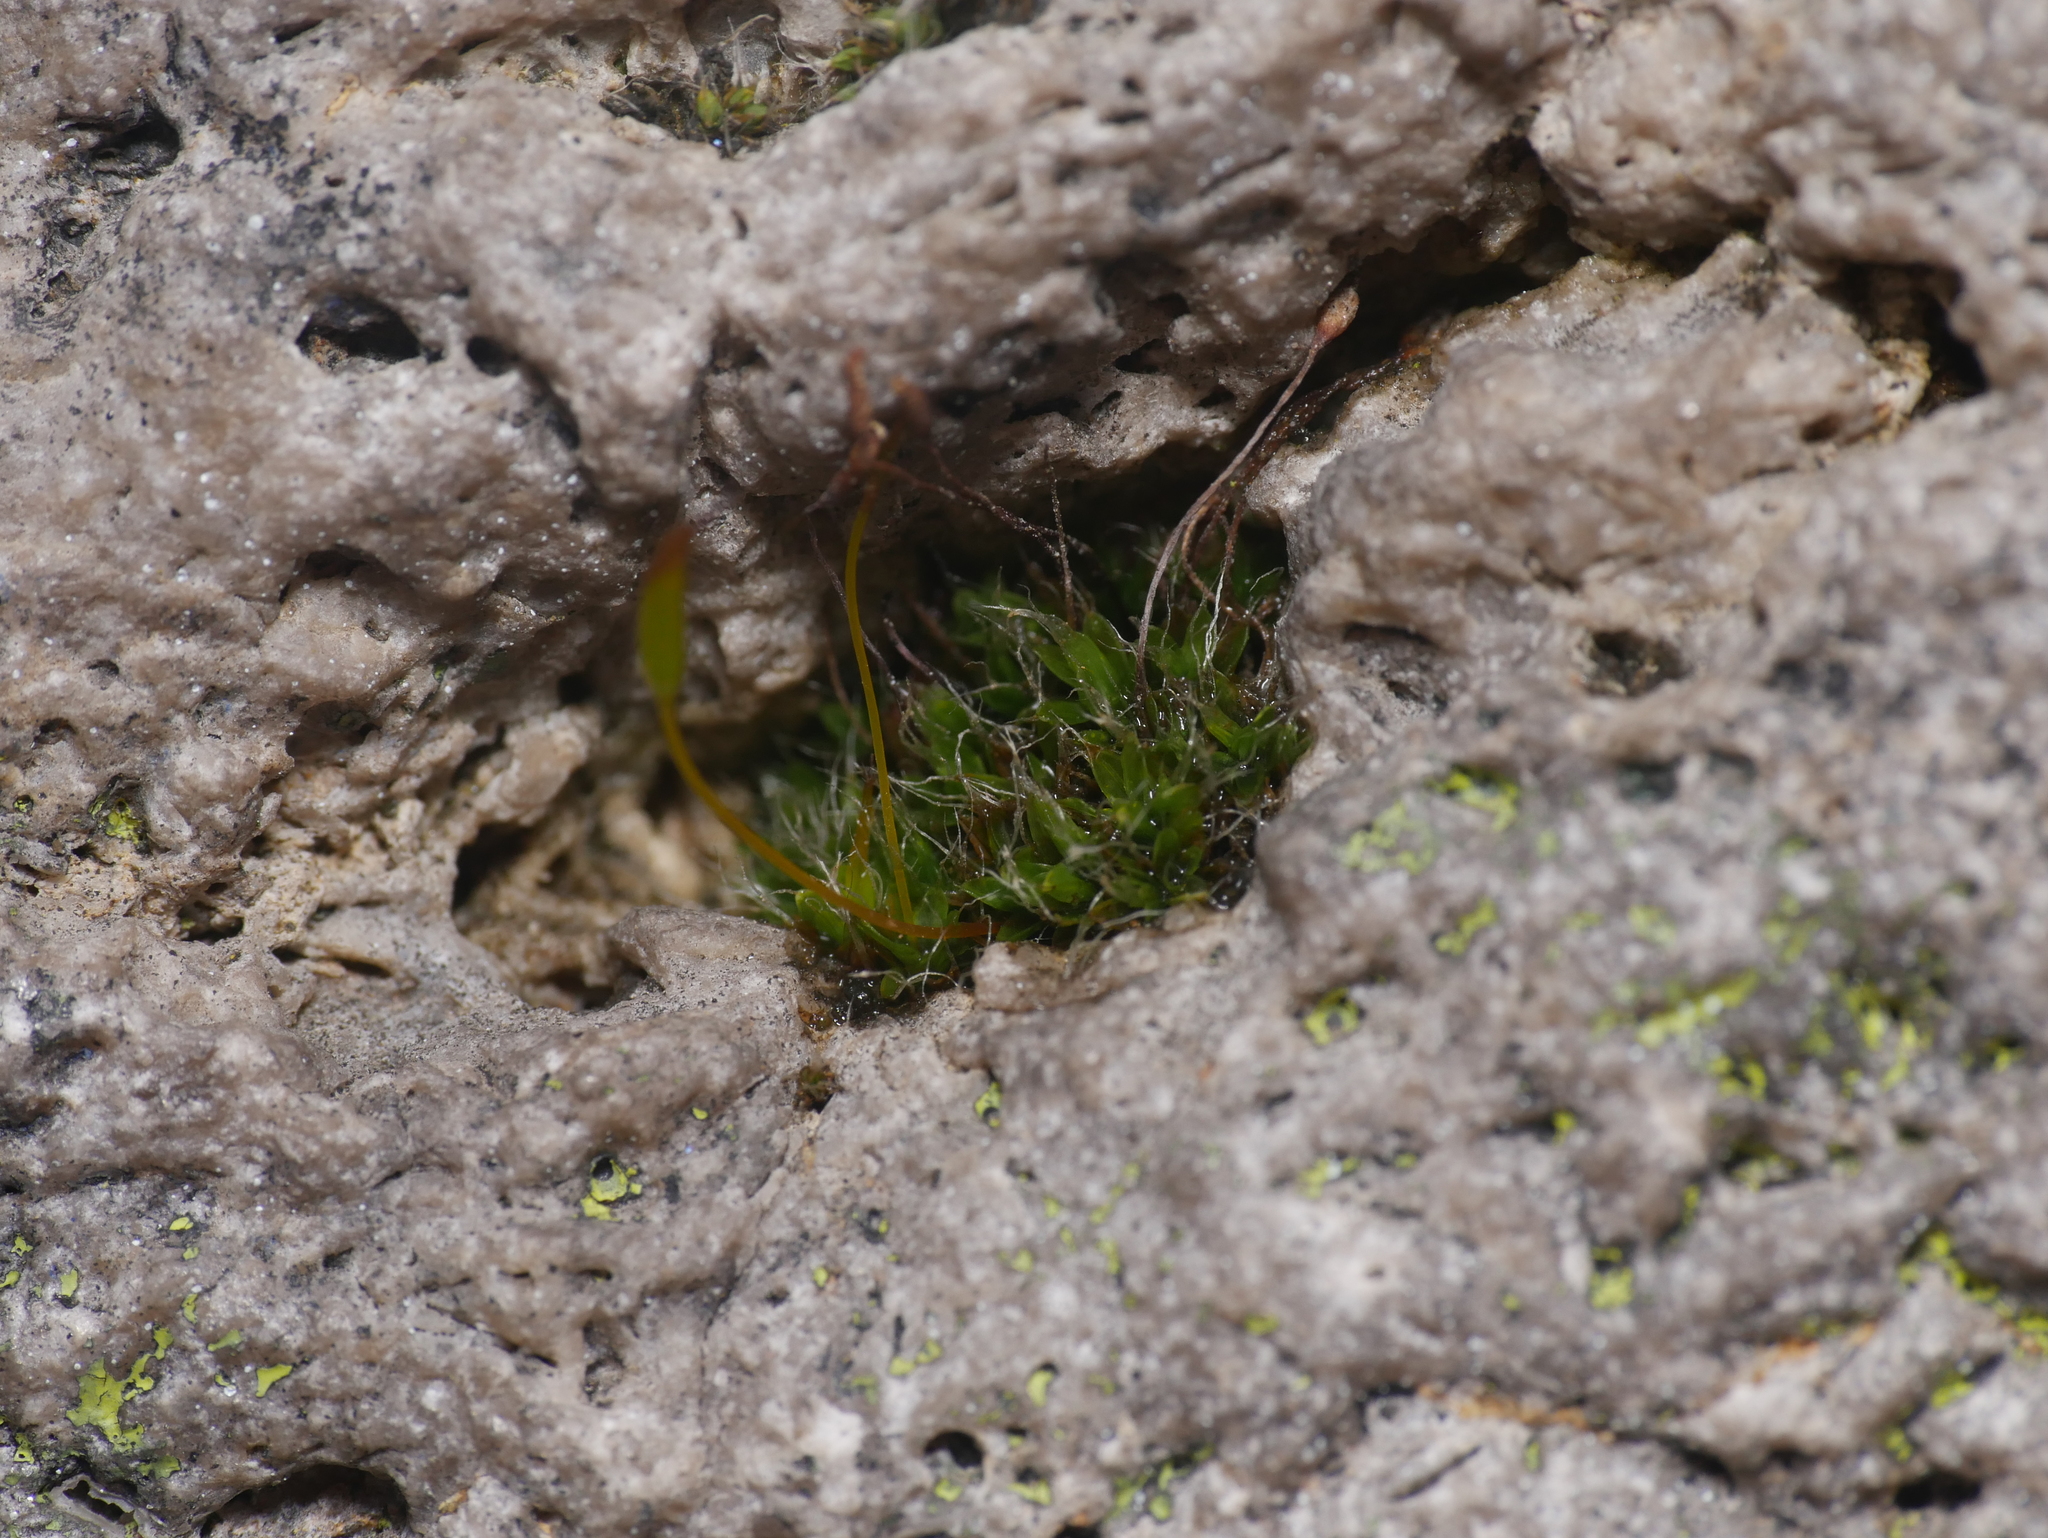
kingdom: Plantae
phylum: Bryophyta
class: Bryopsida
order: Pottiales
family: Pottiaceae
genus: Tortula
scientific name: Tortula muralis
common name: Wall screw-moss
